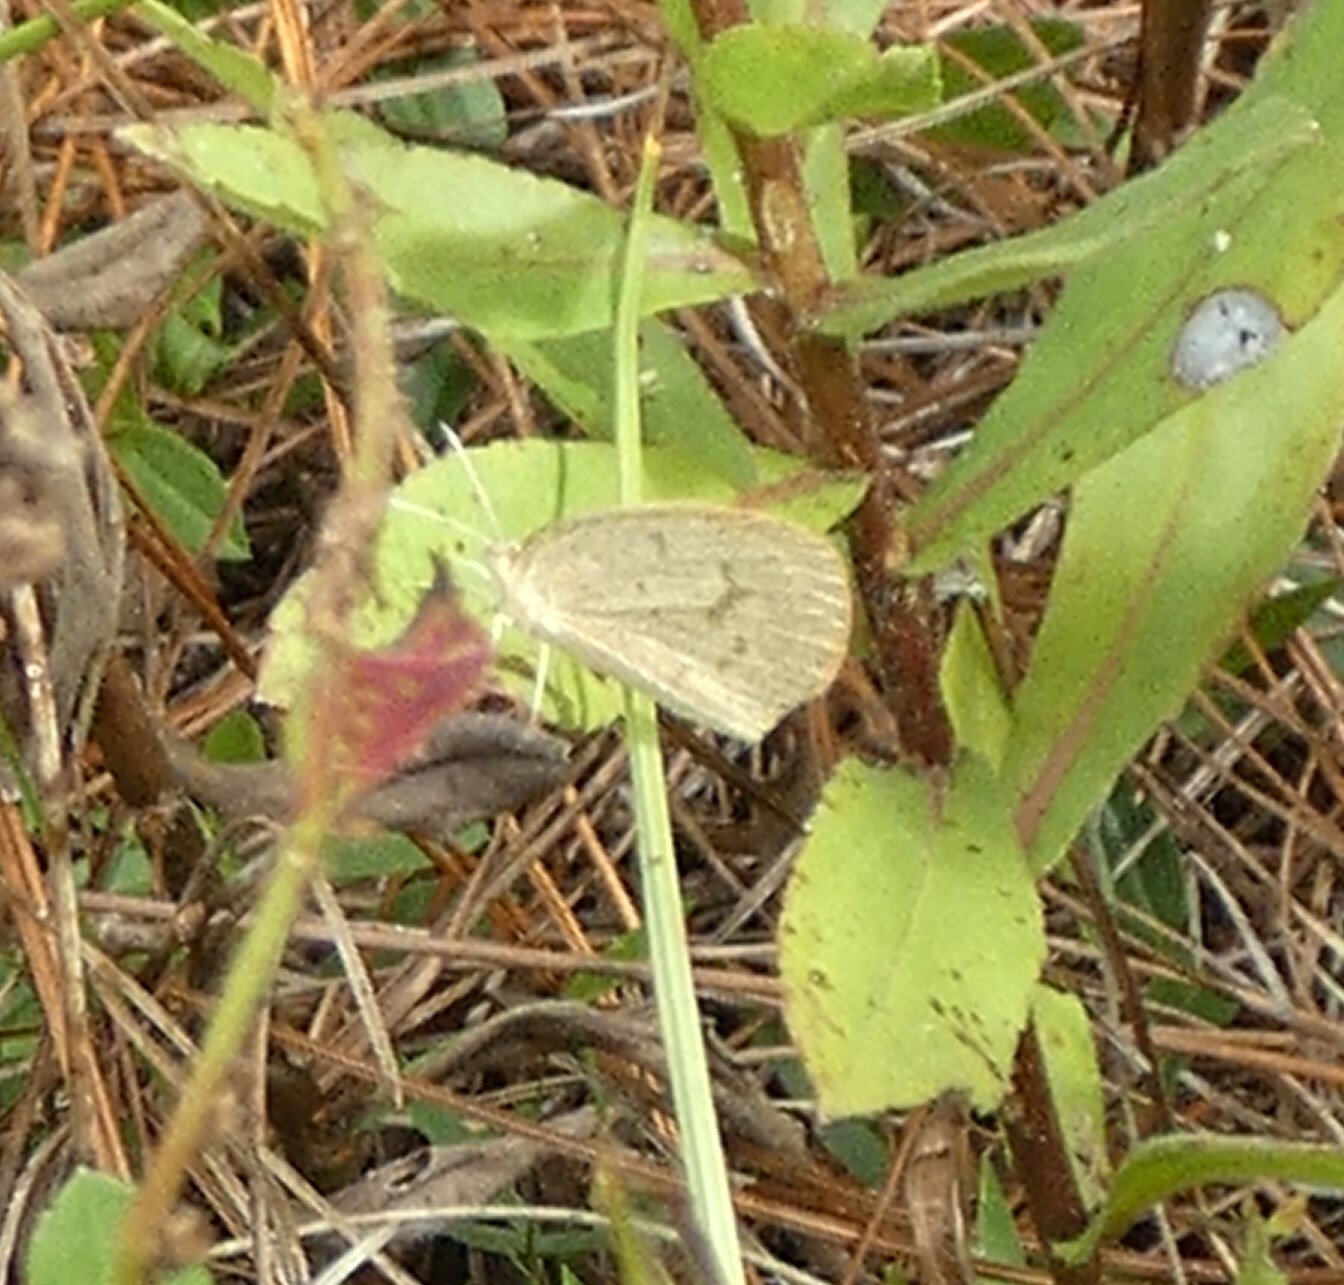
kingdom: Animalia
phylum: Arthropoda
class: Insecta
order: Lepidoptera
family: Pieridae
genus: Eurema
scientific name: Eurema daira
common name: Barred sulphur
